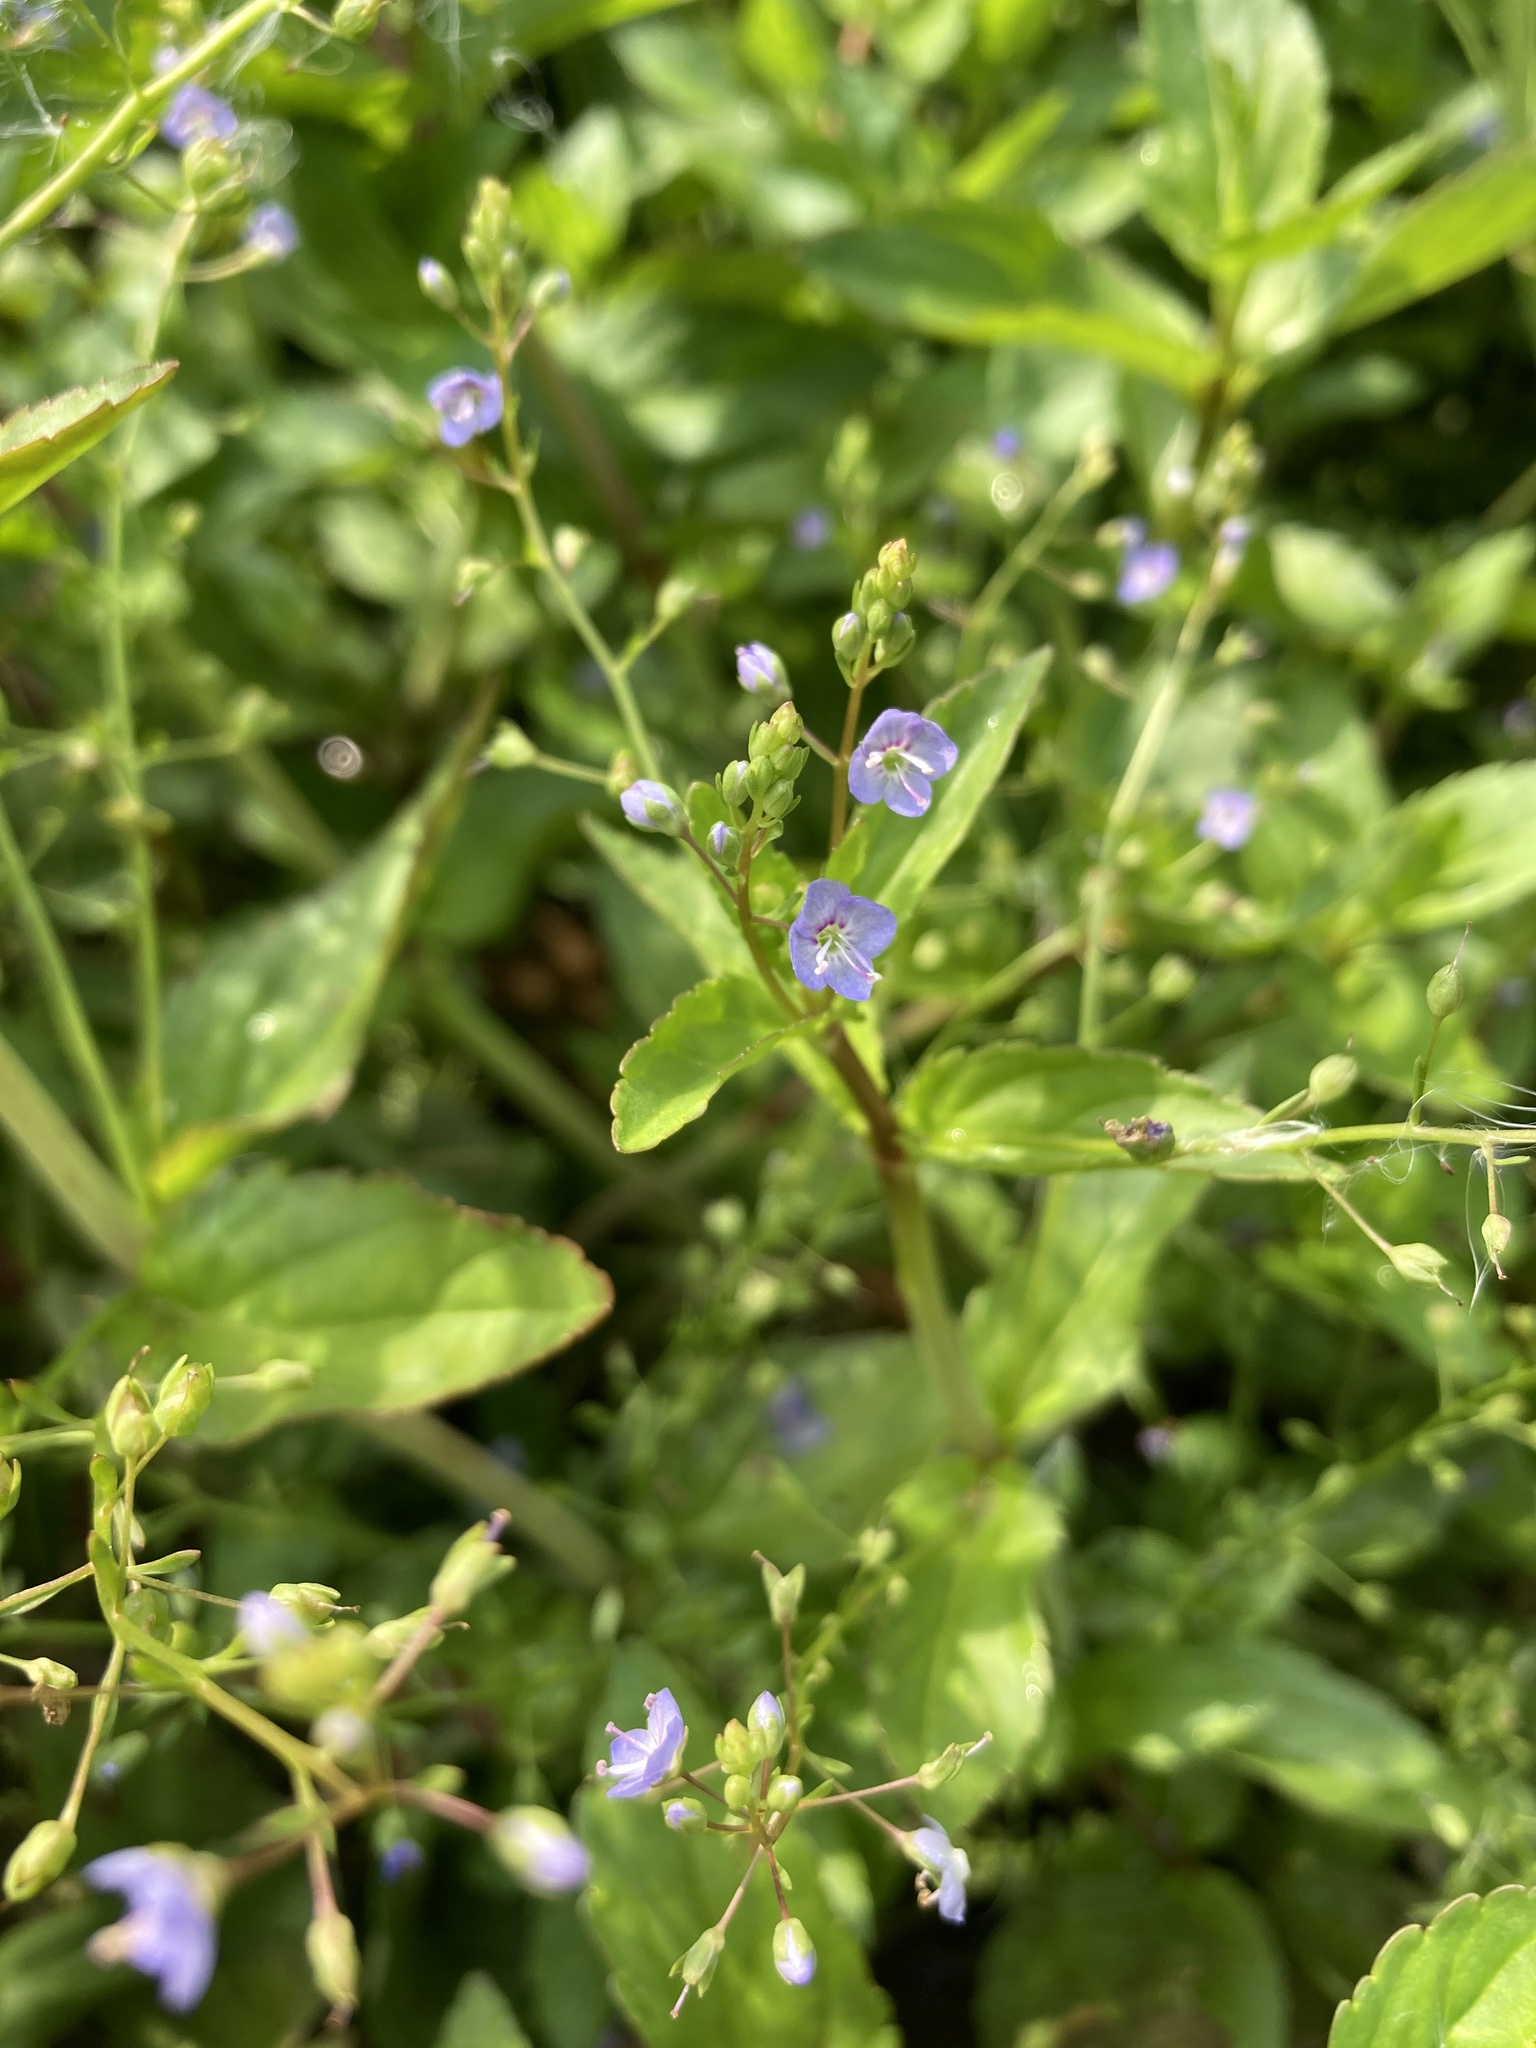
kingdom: Plantae
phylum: Tracheophyta
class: Magnoliopsida
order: Lamiales
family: Plantaginaceae
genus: Veronica
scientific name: Veronica americana
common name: American brooklime
